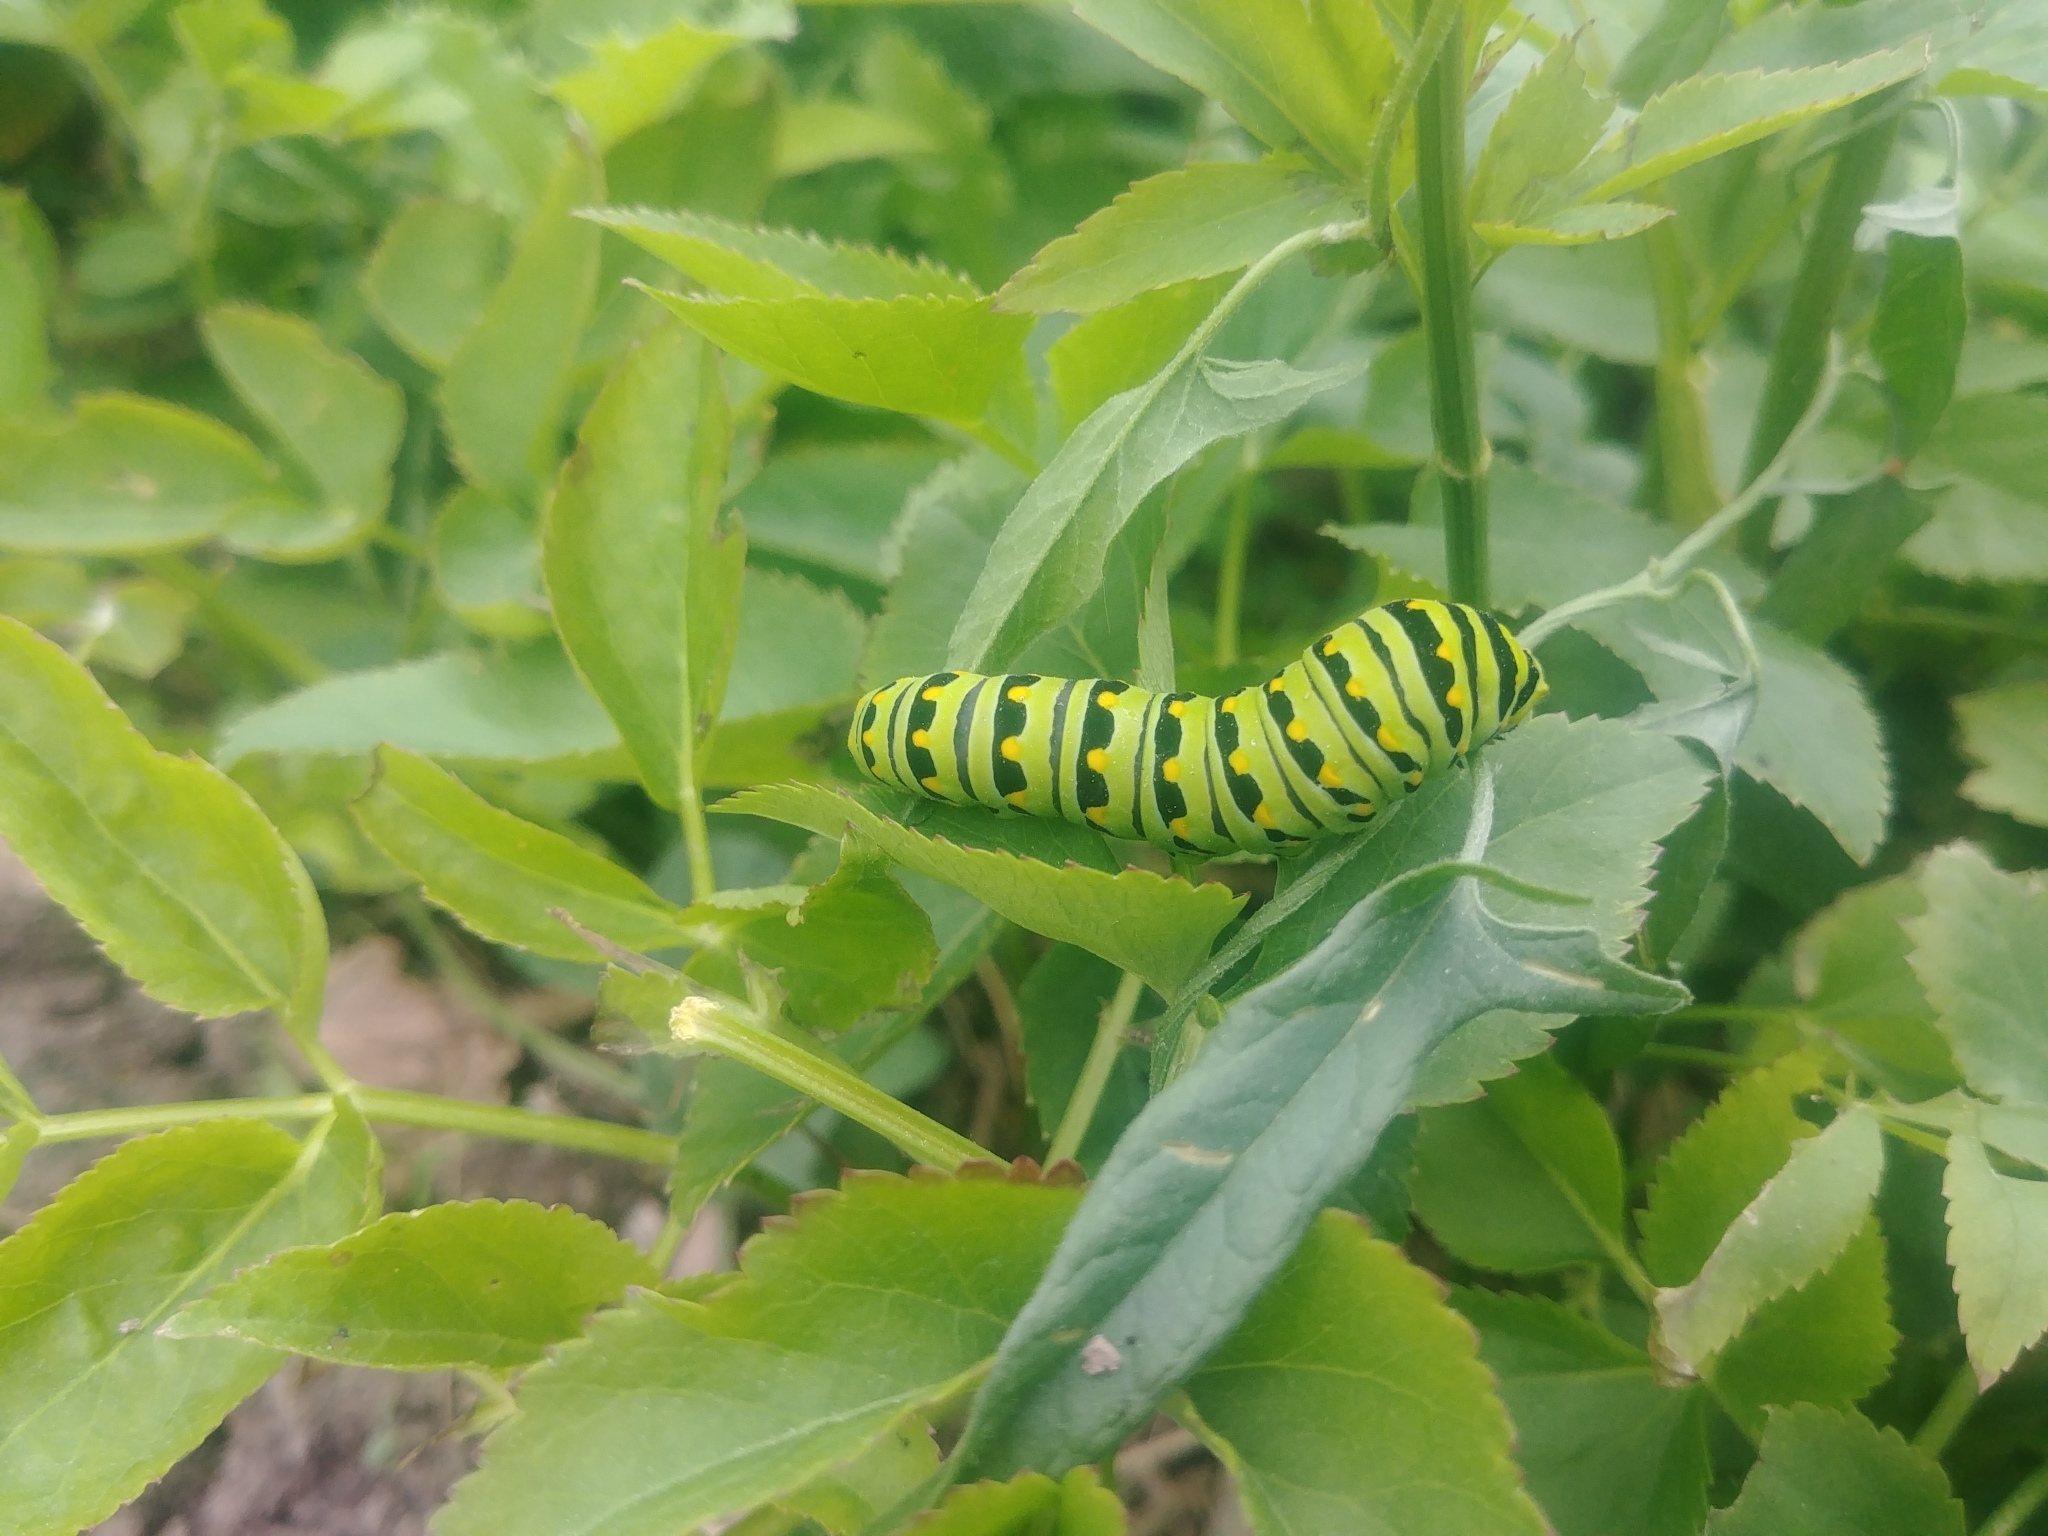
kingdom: Animalia
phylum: Arthropoda
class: Insecta
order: Lepidoptera
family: Papilionidae
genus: Papilio
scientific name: Papilio polyxenes
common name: Black swallowtail
